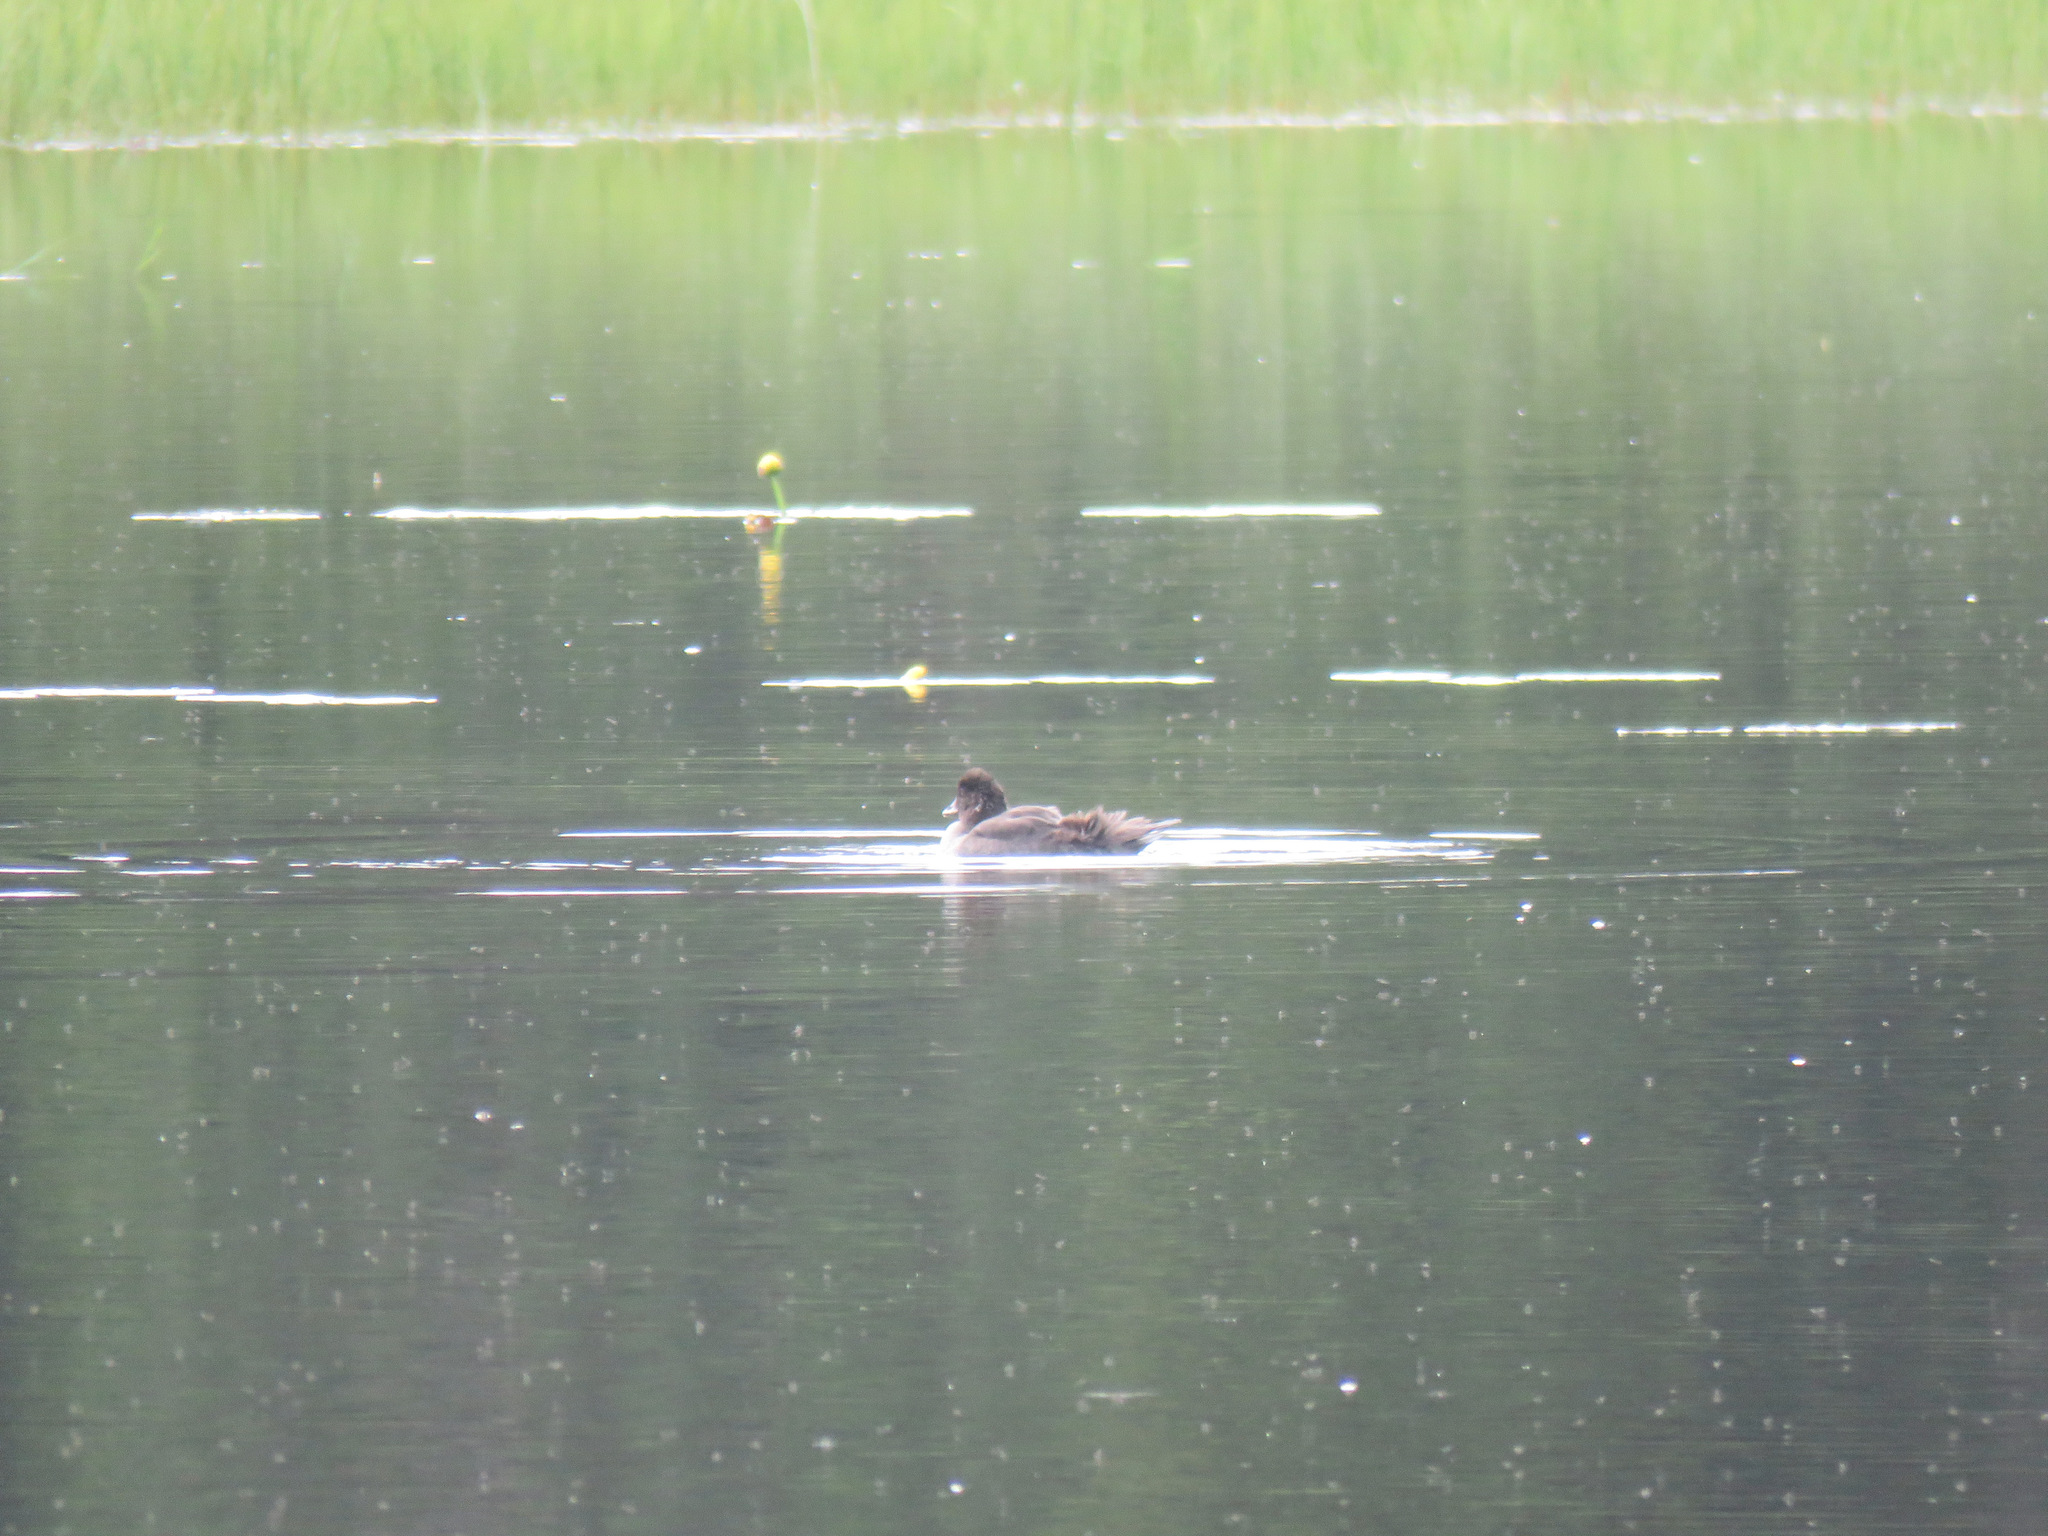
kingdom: Animalia
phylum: Chordata
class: Aves
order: Anseriformes
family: Anatidae
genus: Bucephala
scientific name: Bucephala clangula
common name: Common goldeneye
